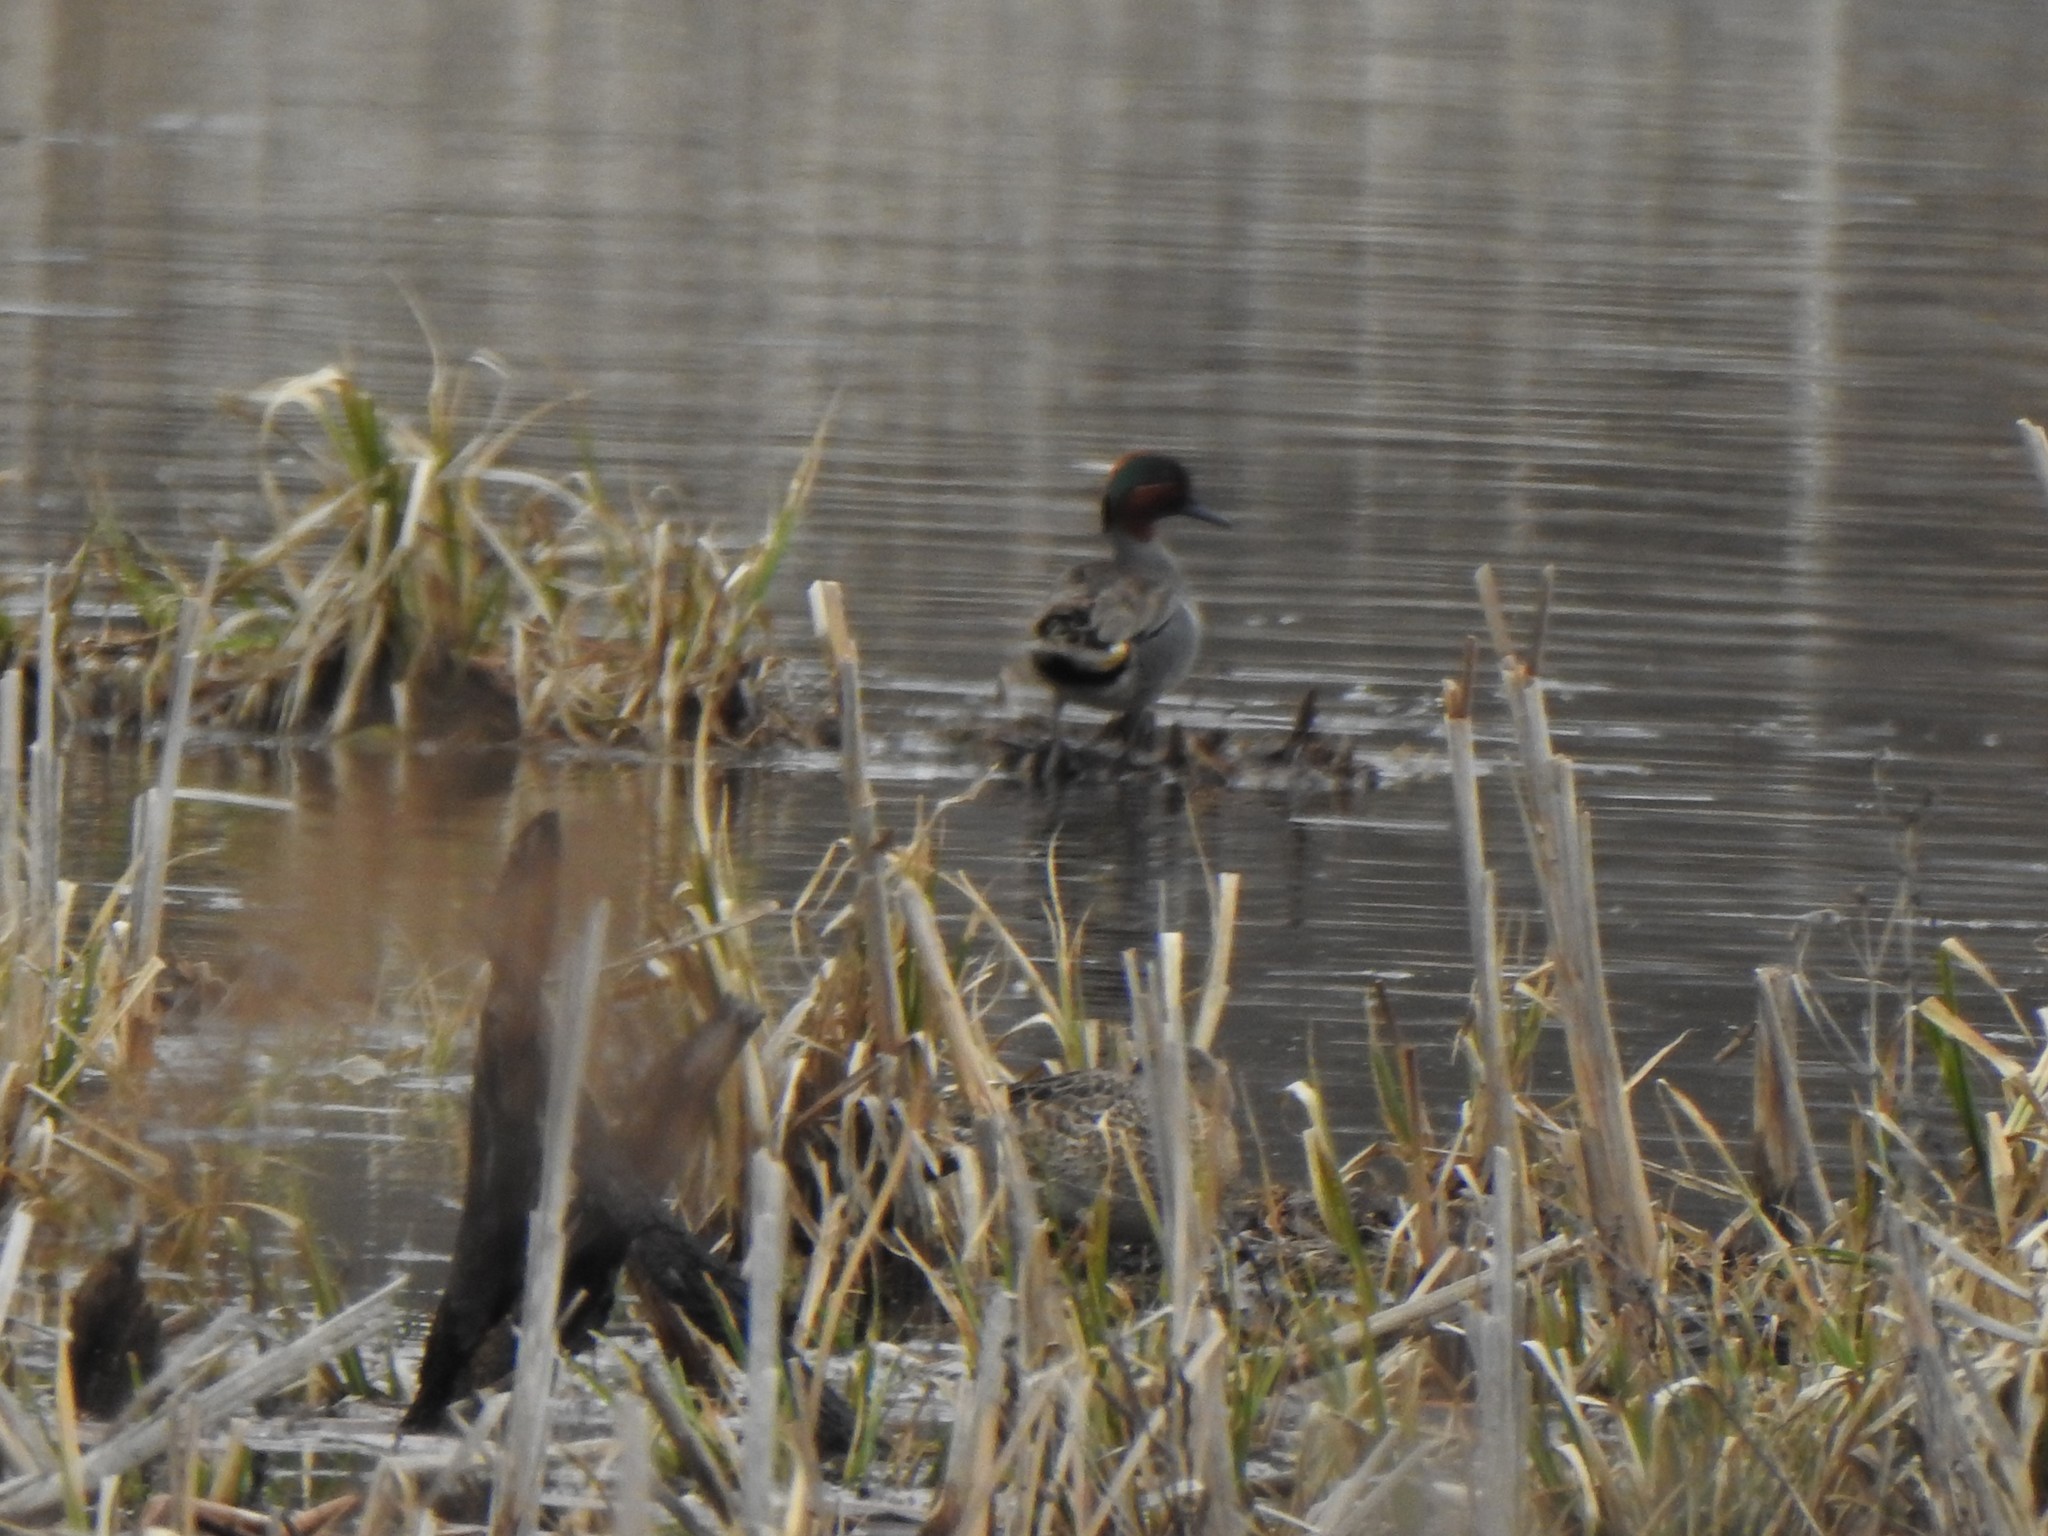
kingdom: Animalia
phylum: Chordata
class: Aves
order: Anseriformes
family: Anatidae
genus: Anas
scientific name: Anas crecca
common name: Eurasian teal
